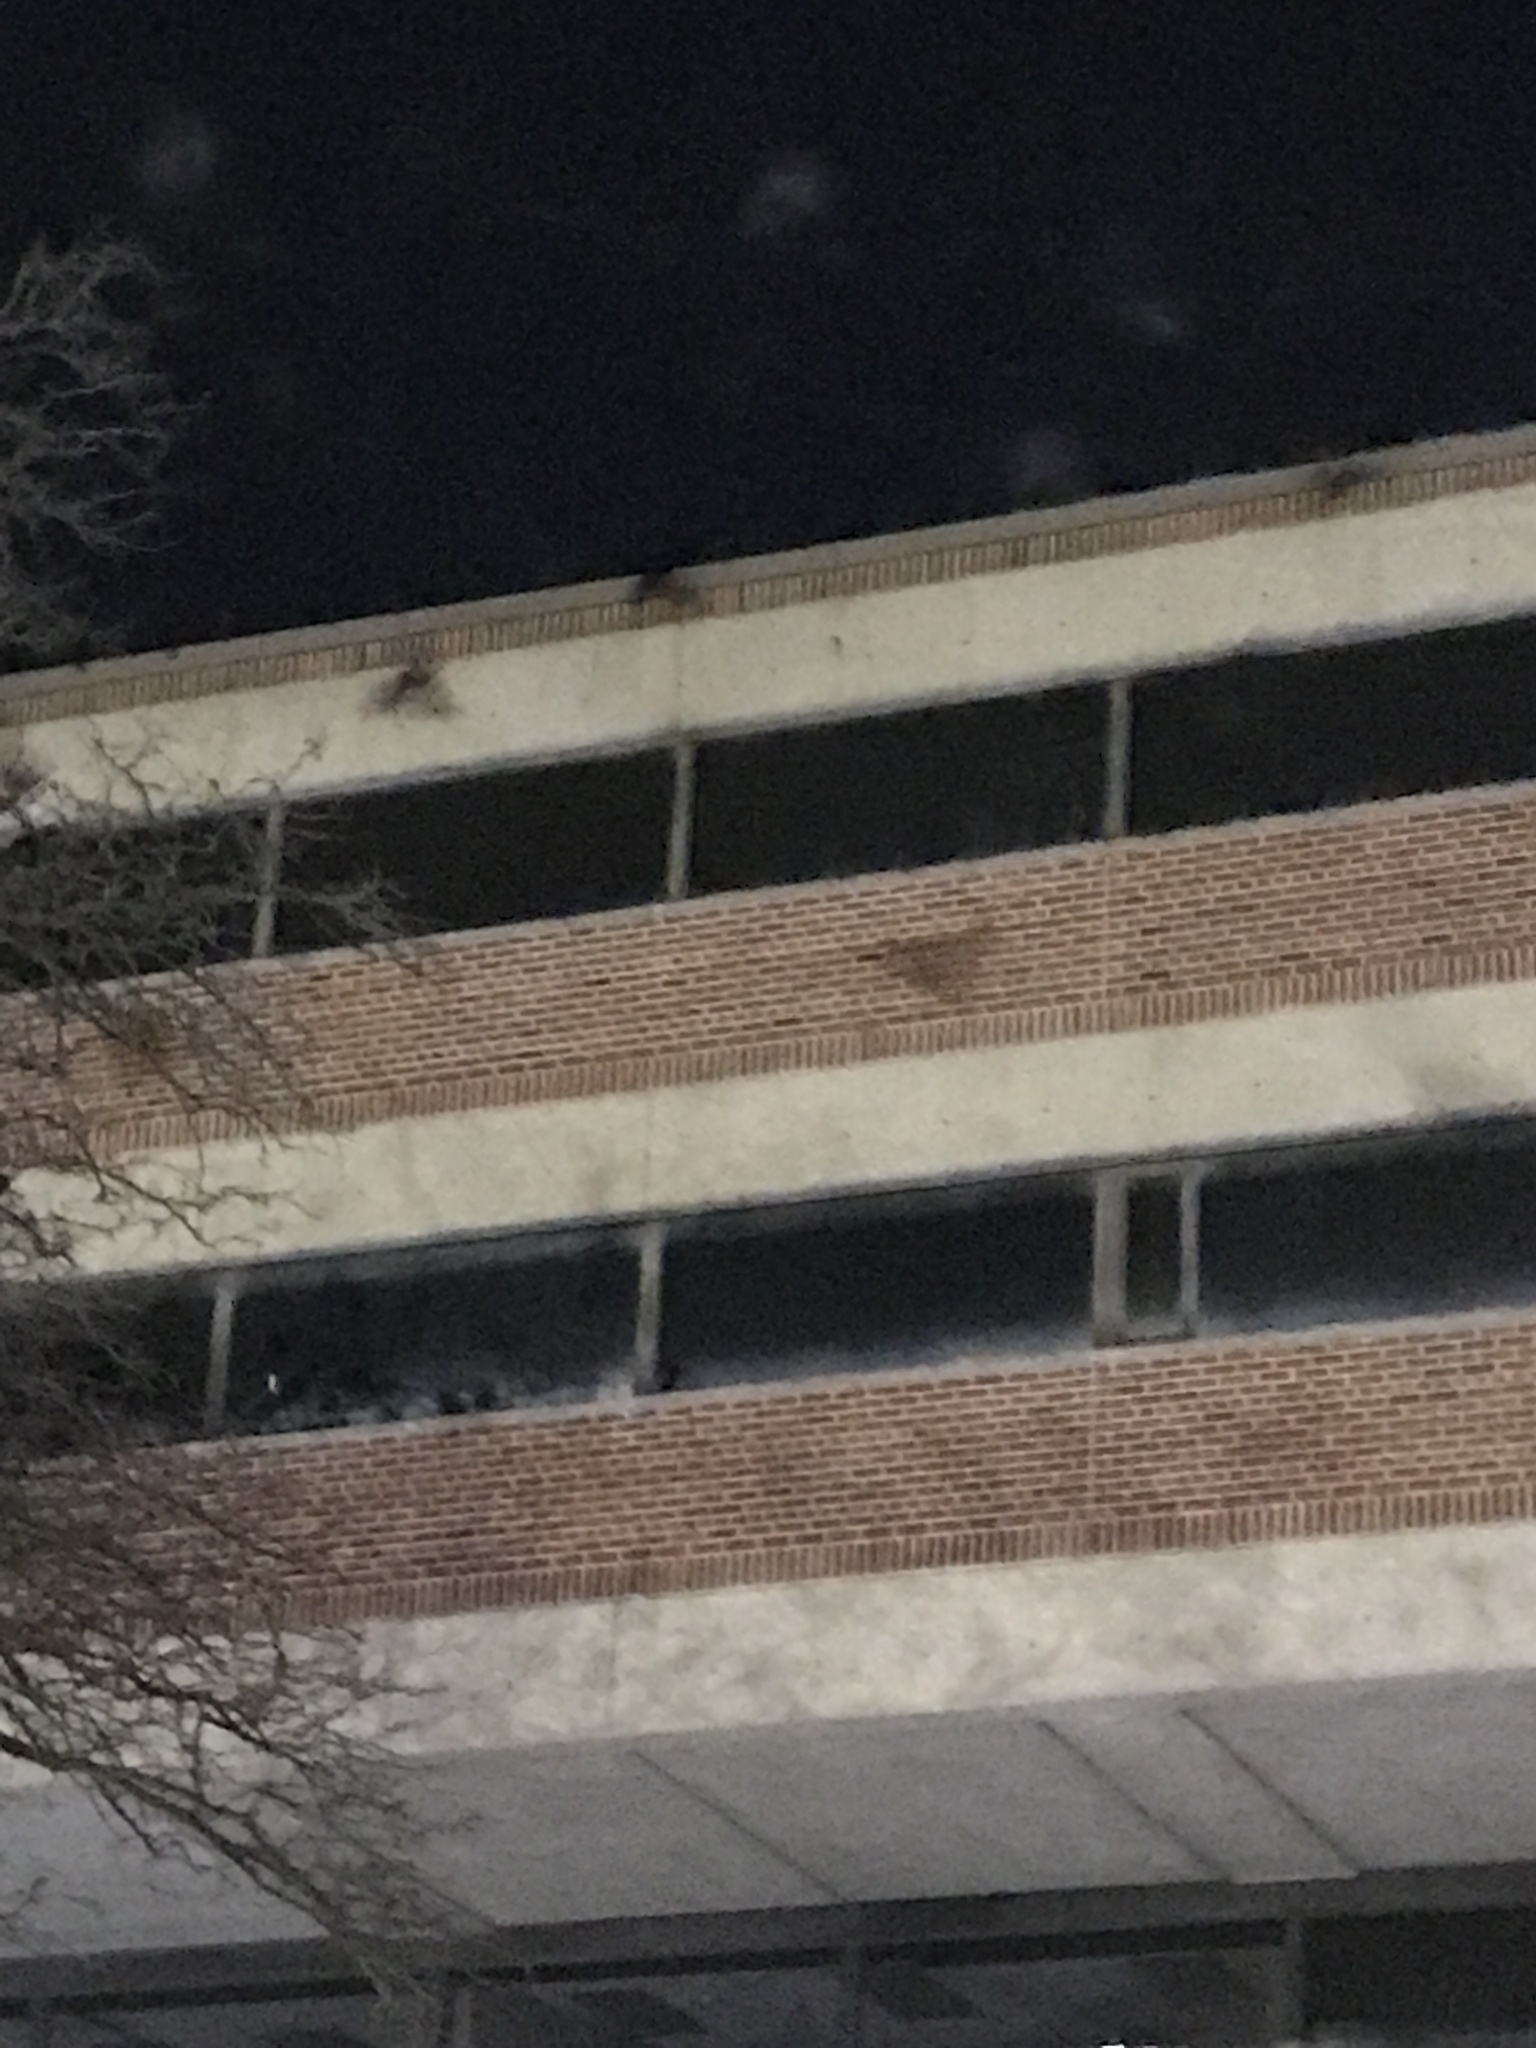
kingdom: Animalia
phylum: Chordata
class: Aves
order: Passeriformes
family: Corvidae
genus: Corvus
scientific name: Corvus brachyrhynchos
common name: American crow
